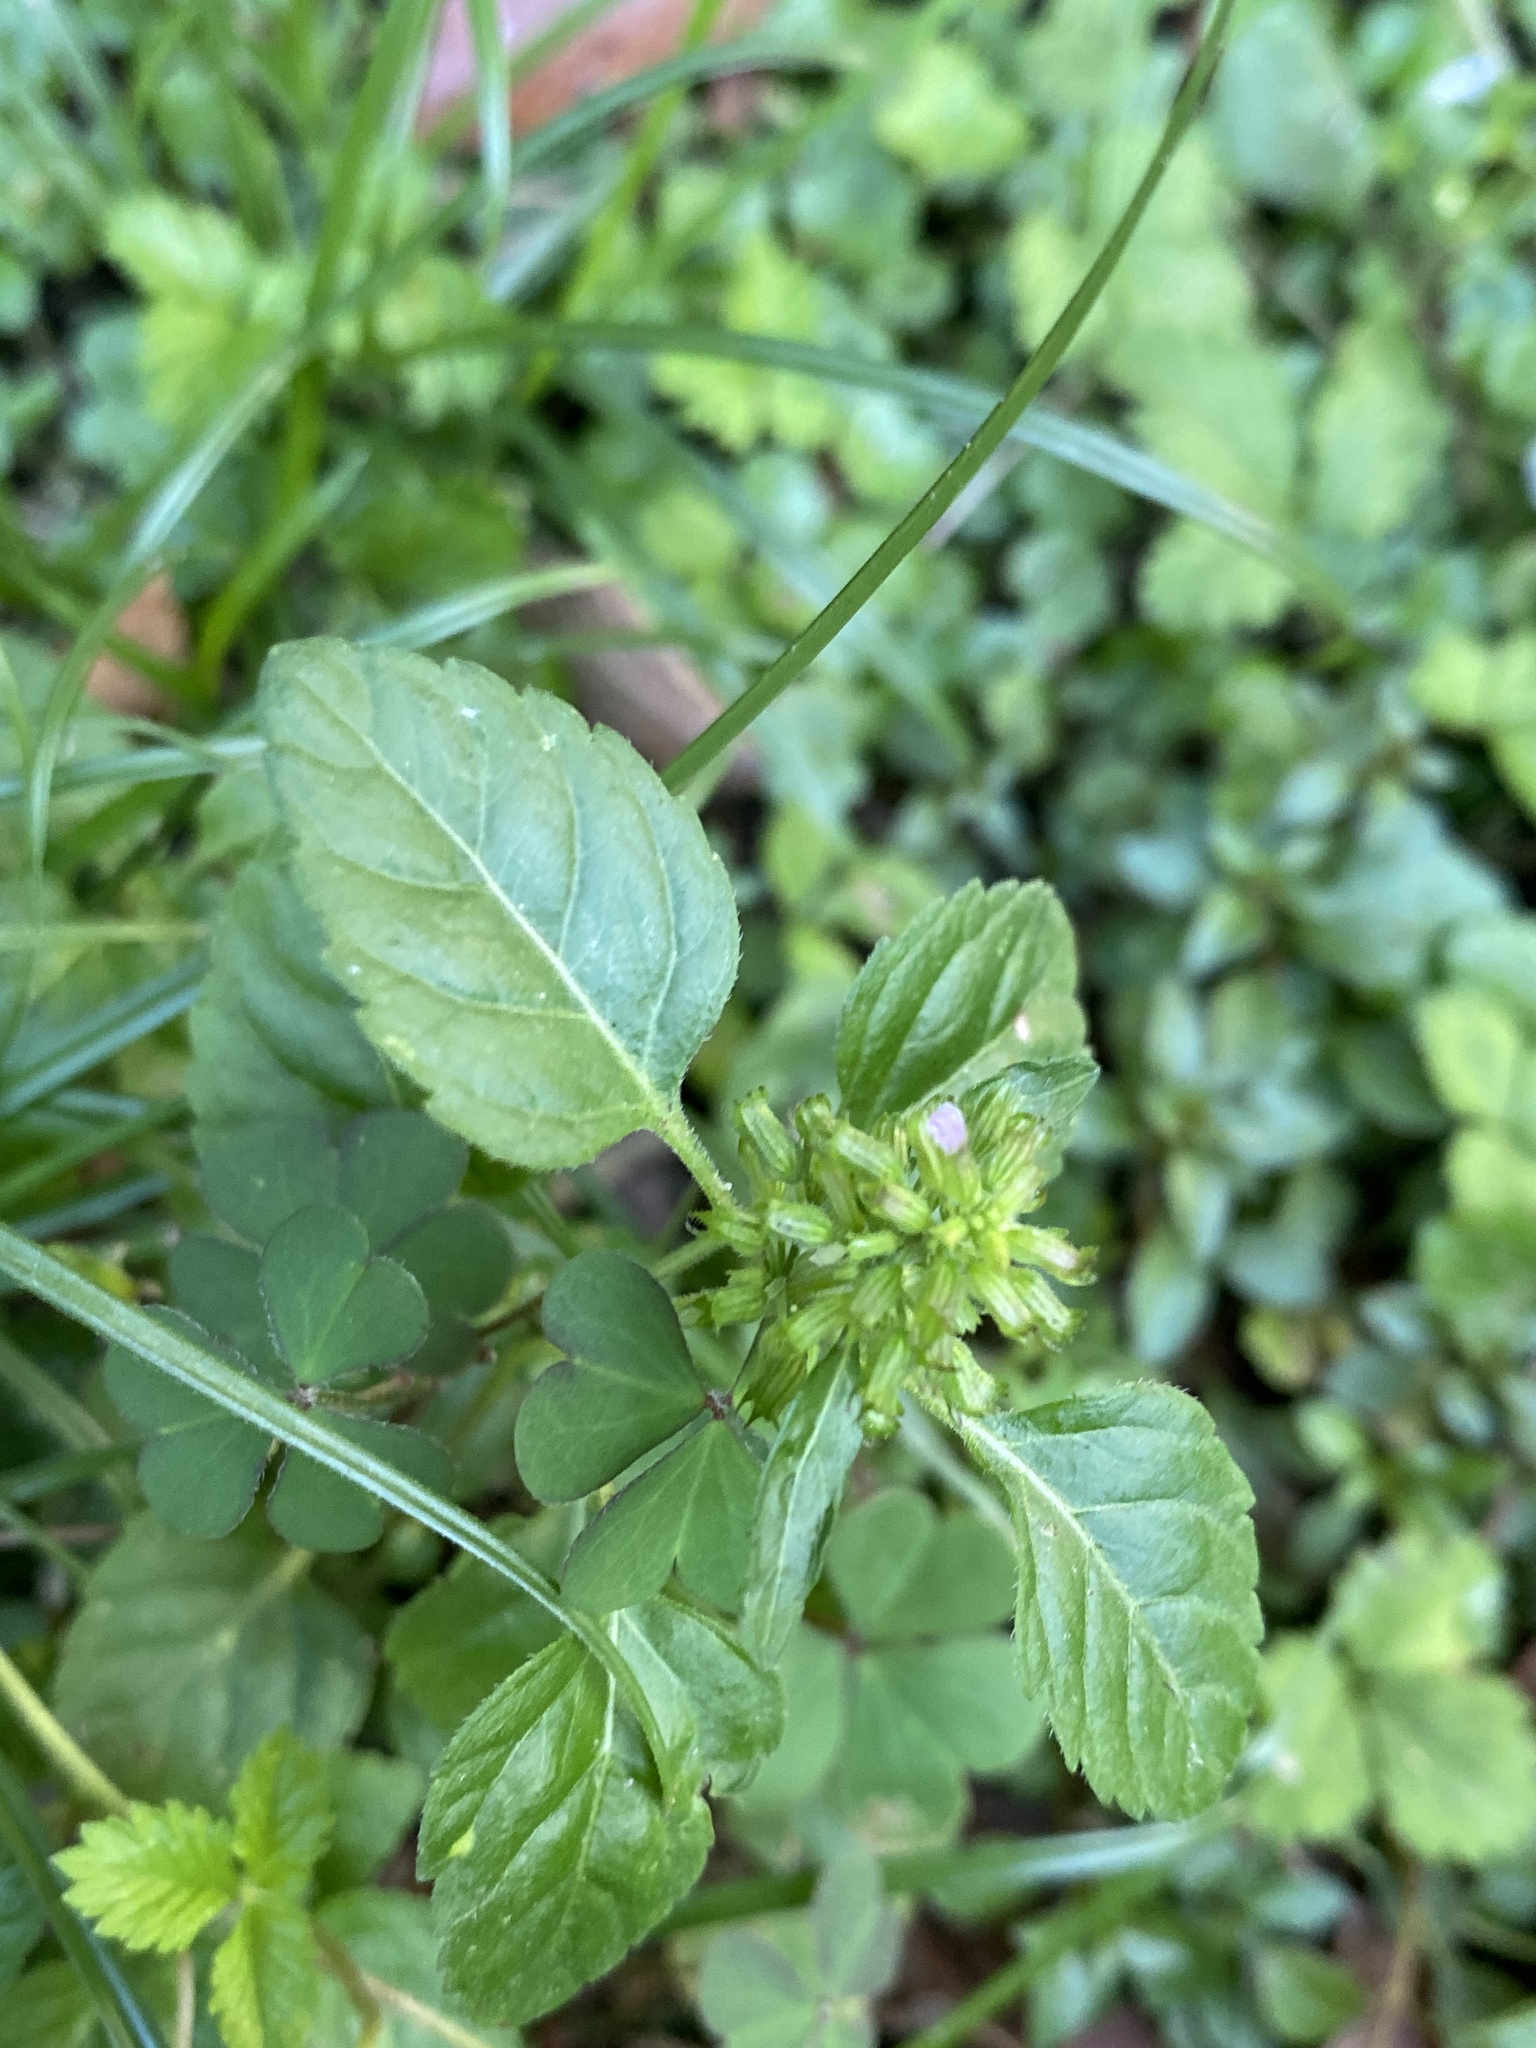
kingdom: Plantae
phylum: Tracheophyta
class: Magnoliopsida
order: Lamiales
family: Lamiaceae
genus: Clinopodium
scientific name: Clinopodium gracile
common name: Slender wild basil
